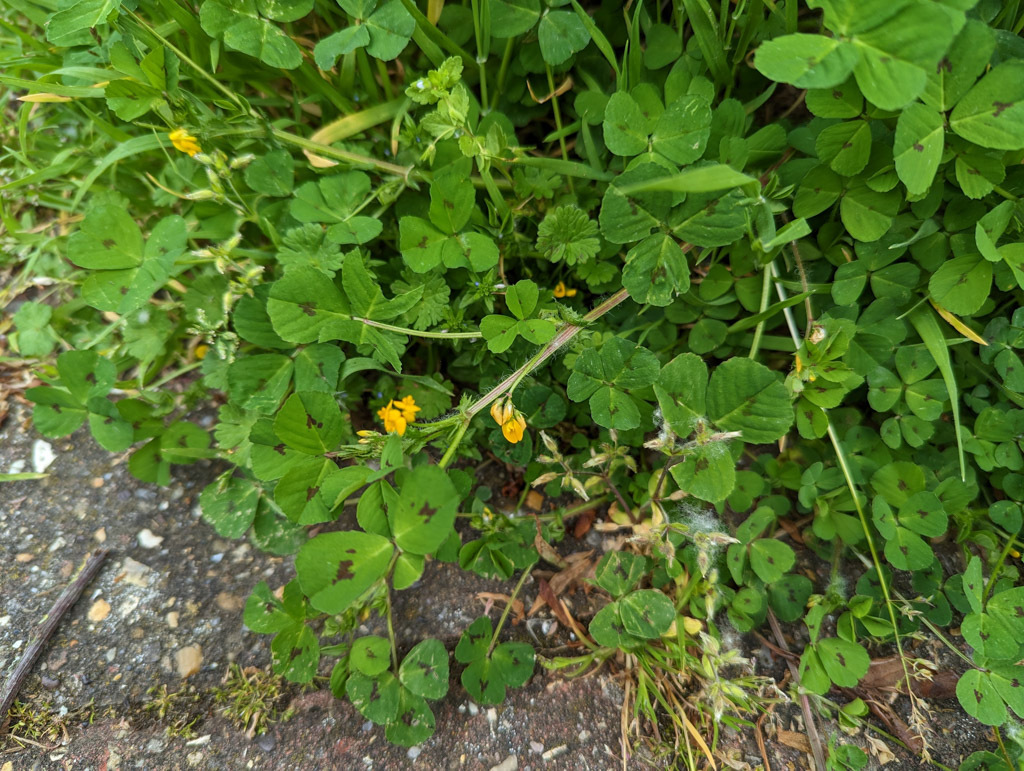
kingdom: Plantae
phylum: Tracheophyta
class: Magnoliopsida
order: Fabales
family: Fabaceae
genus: Medicago
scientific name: Medicago arabica
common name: Spotted medick
